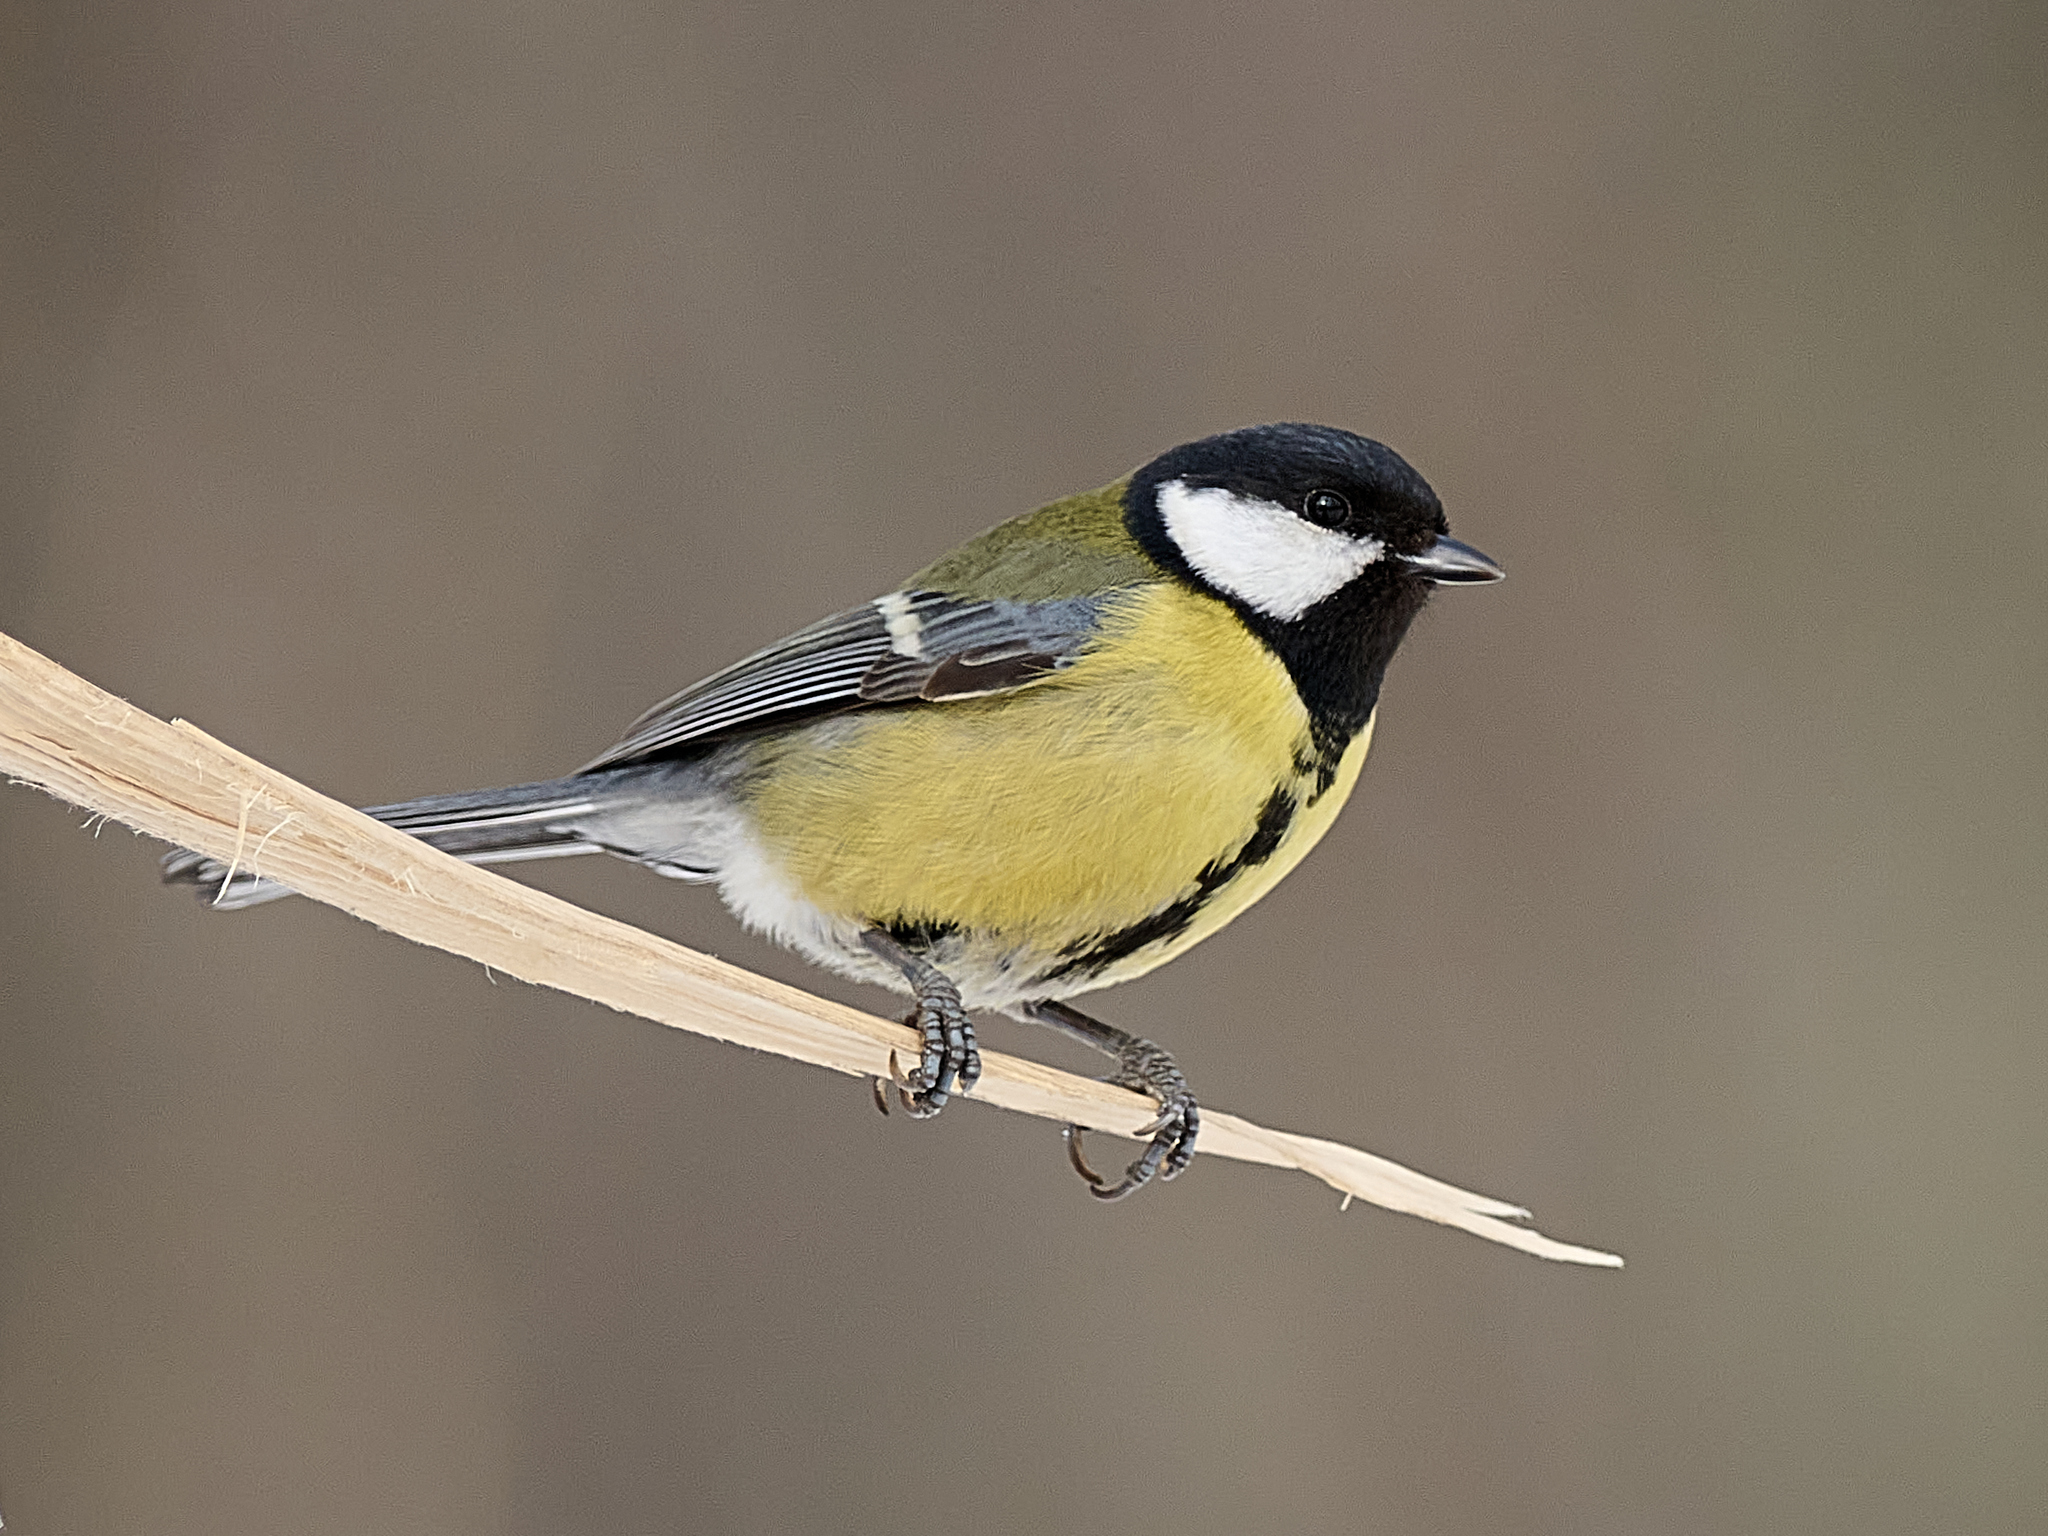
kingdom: Animalia
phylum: Chordata
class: Aves
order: Passeriformes
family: Paridae
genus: Parus
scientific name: Parus major
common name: Great tit
